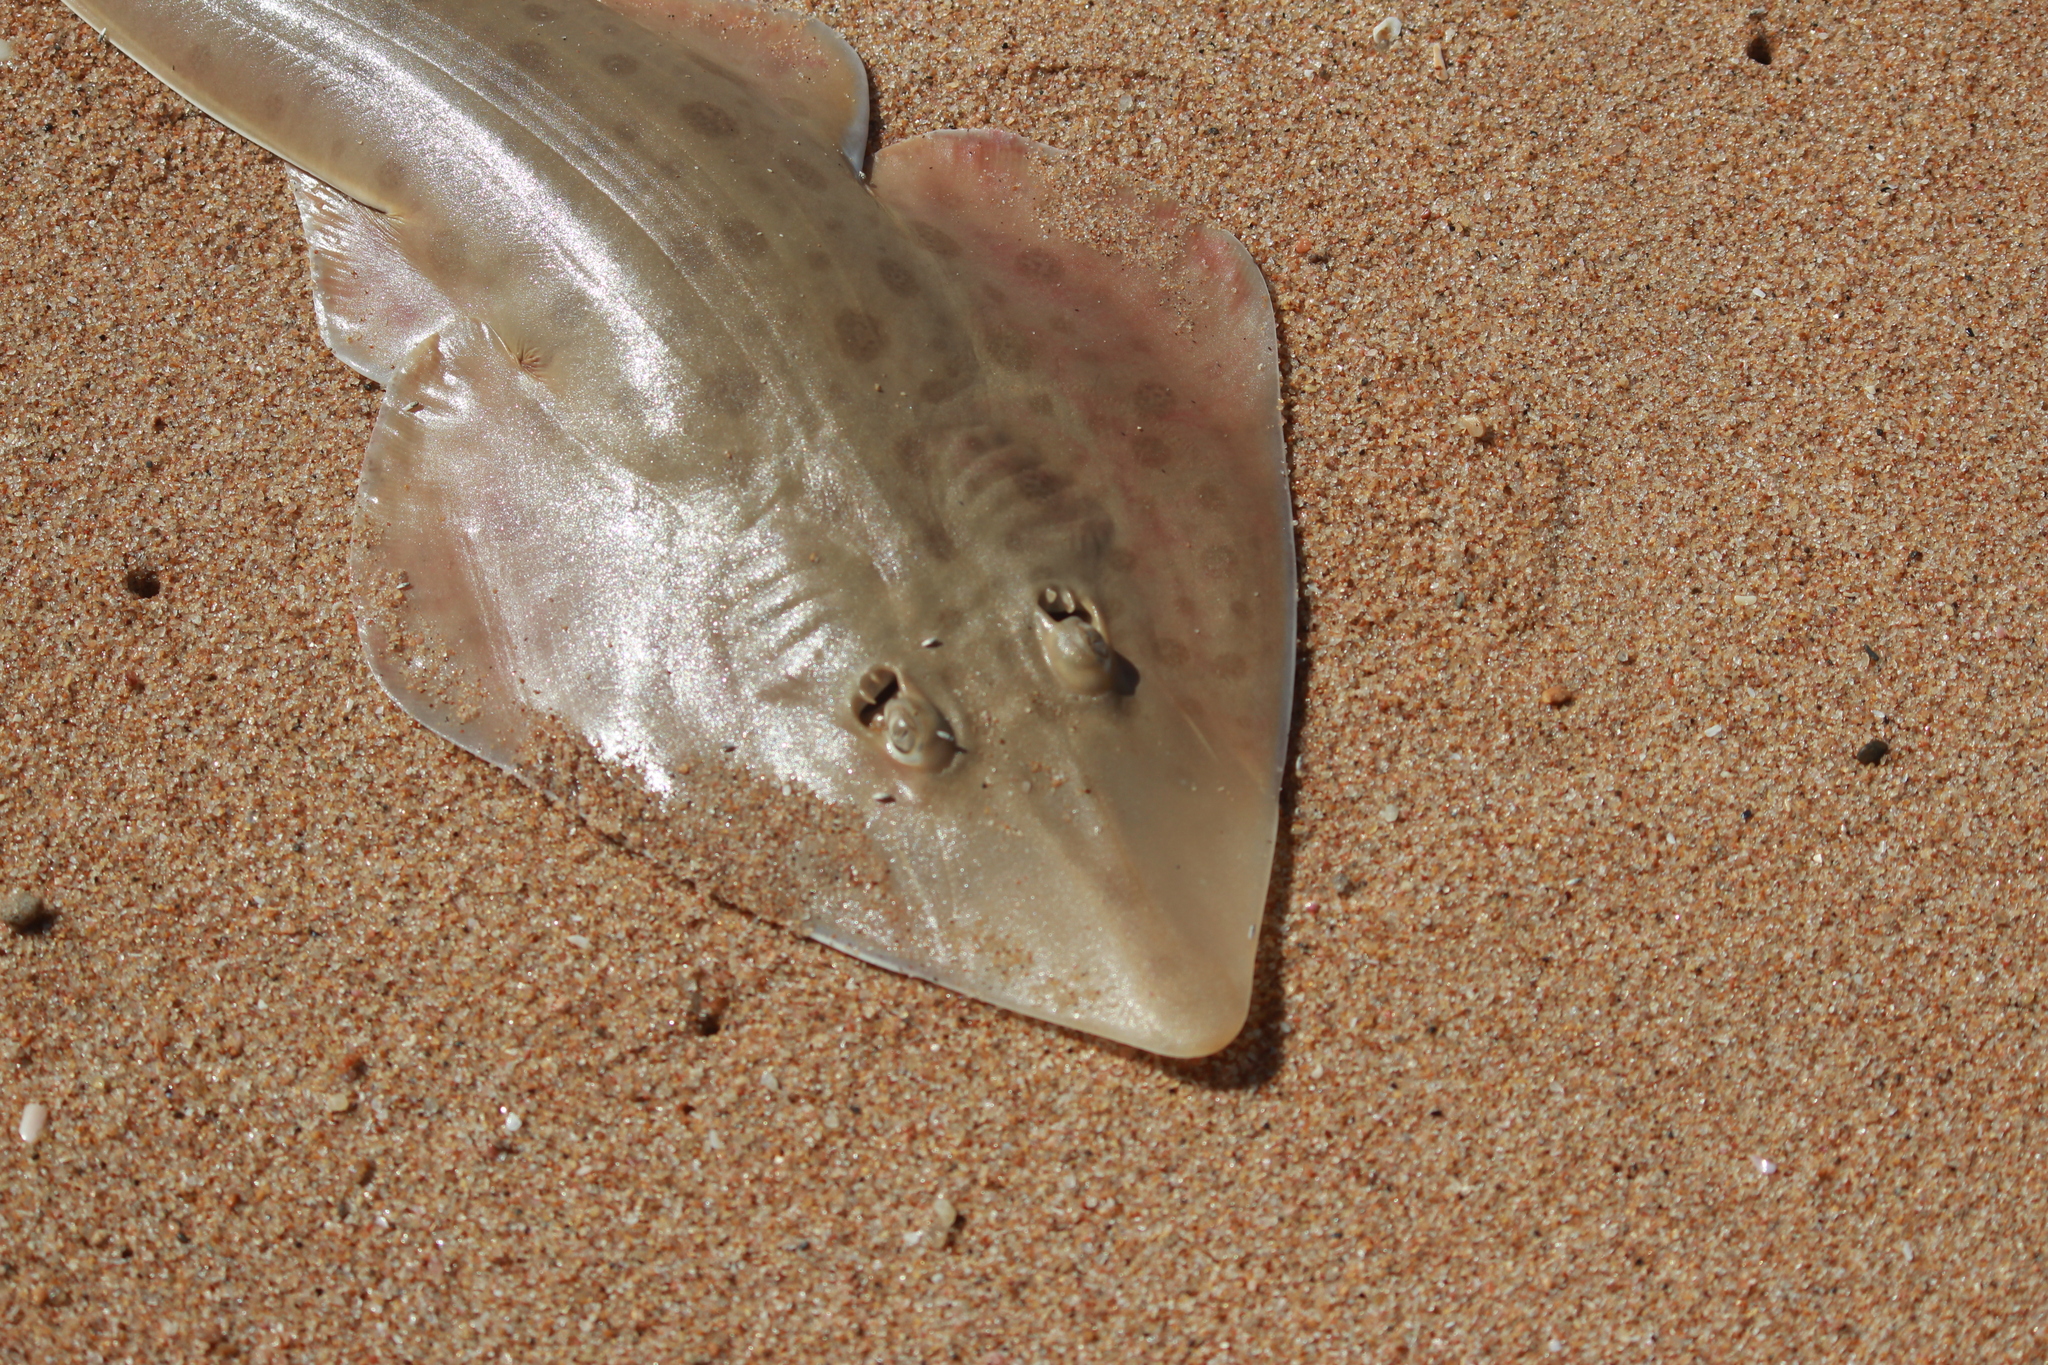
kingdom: Animalia
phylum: Chordata
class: Elasmobranchii
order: Rhinopristiformes
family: Rhinobatidae
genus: Acroteriobatus
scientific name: Acroteriobatus annulatus
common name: Lesser guitarfish
